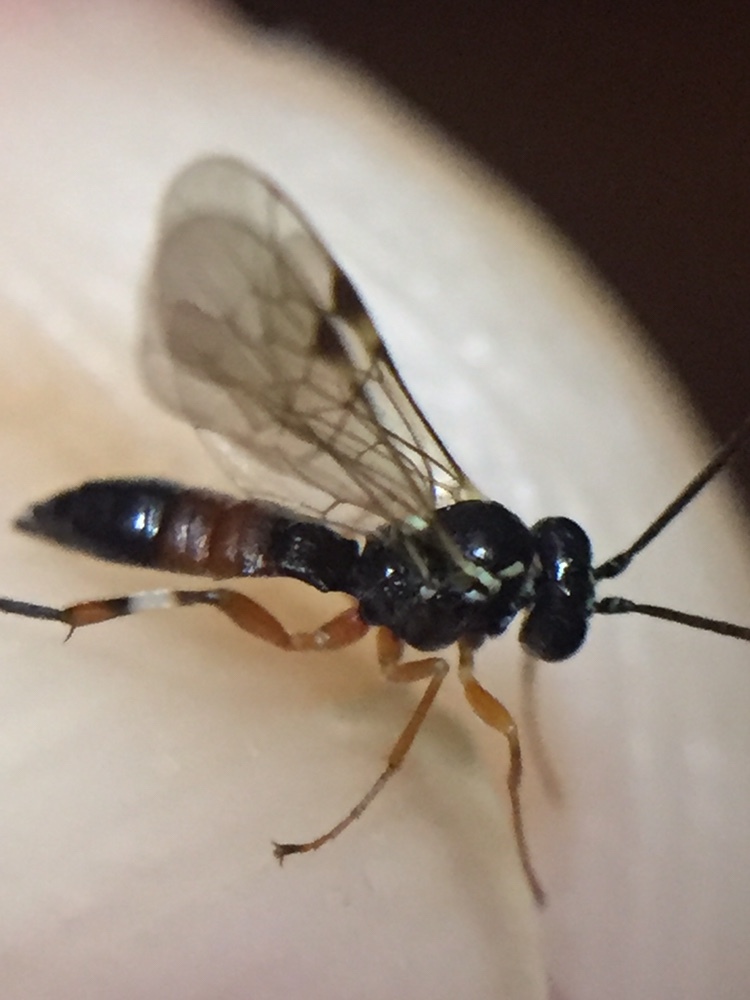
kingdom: Animalia
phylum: Arthropoda
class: Insecta
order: Hymenoptera
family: Ichneumonidae
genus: Diplazon
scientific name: Diplazon laetatorius
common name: Parasitoid wasp
